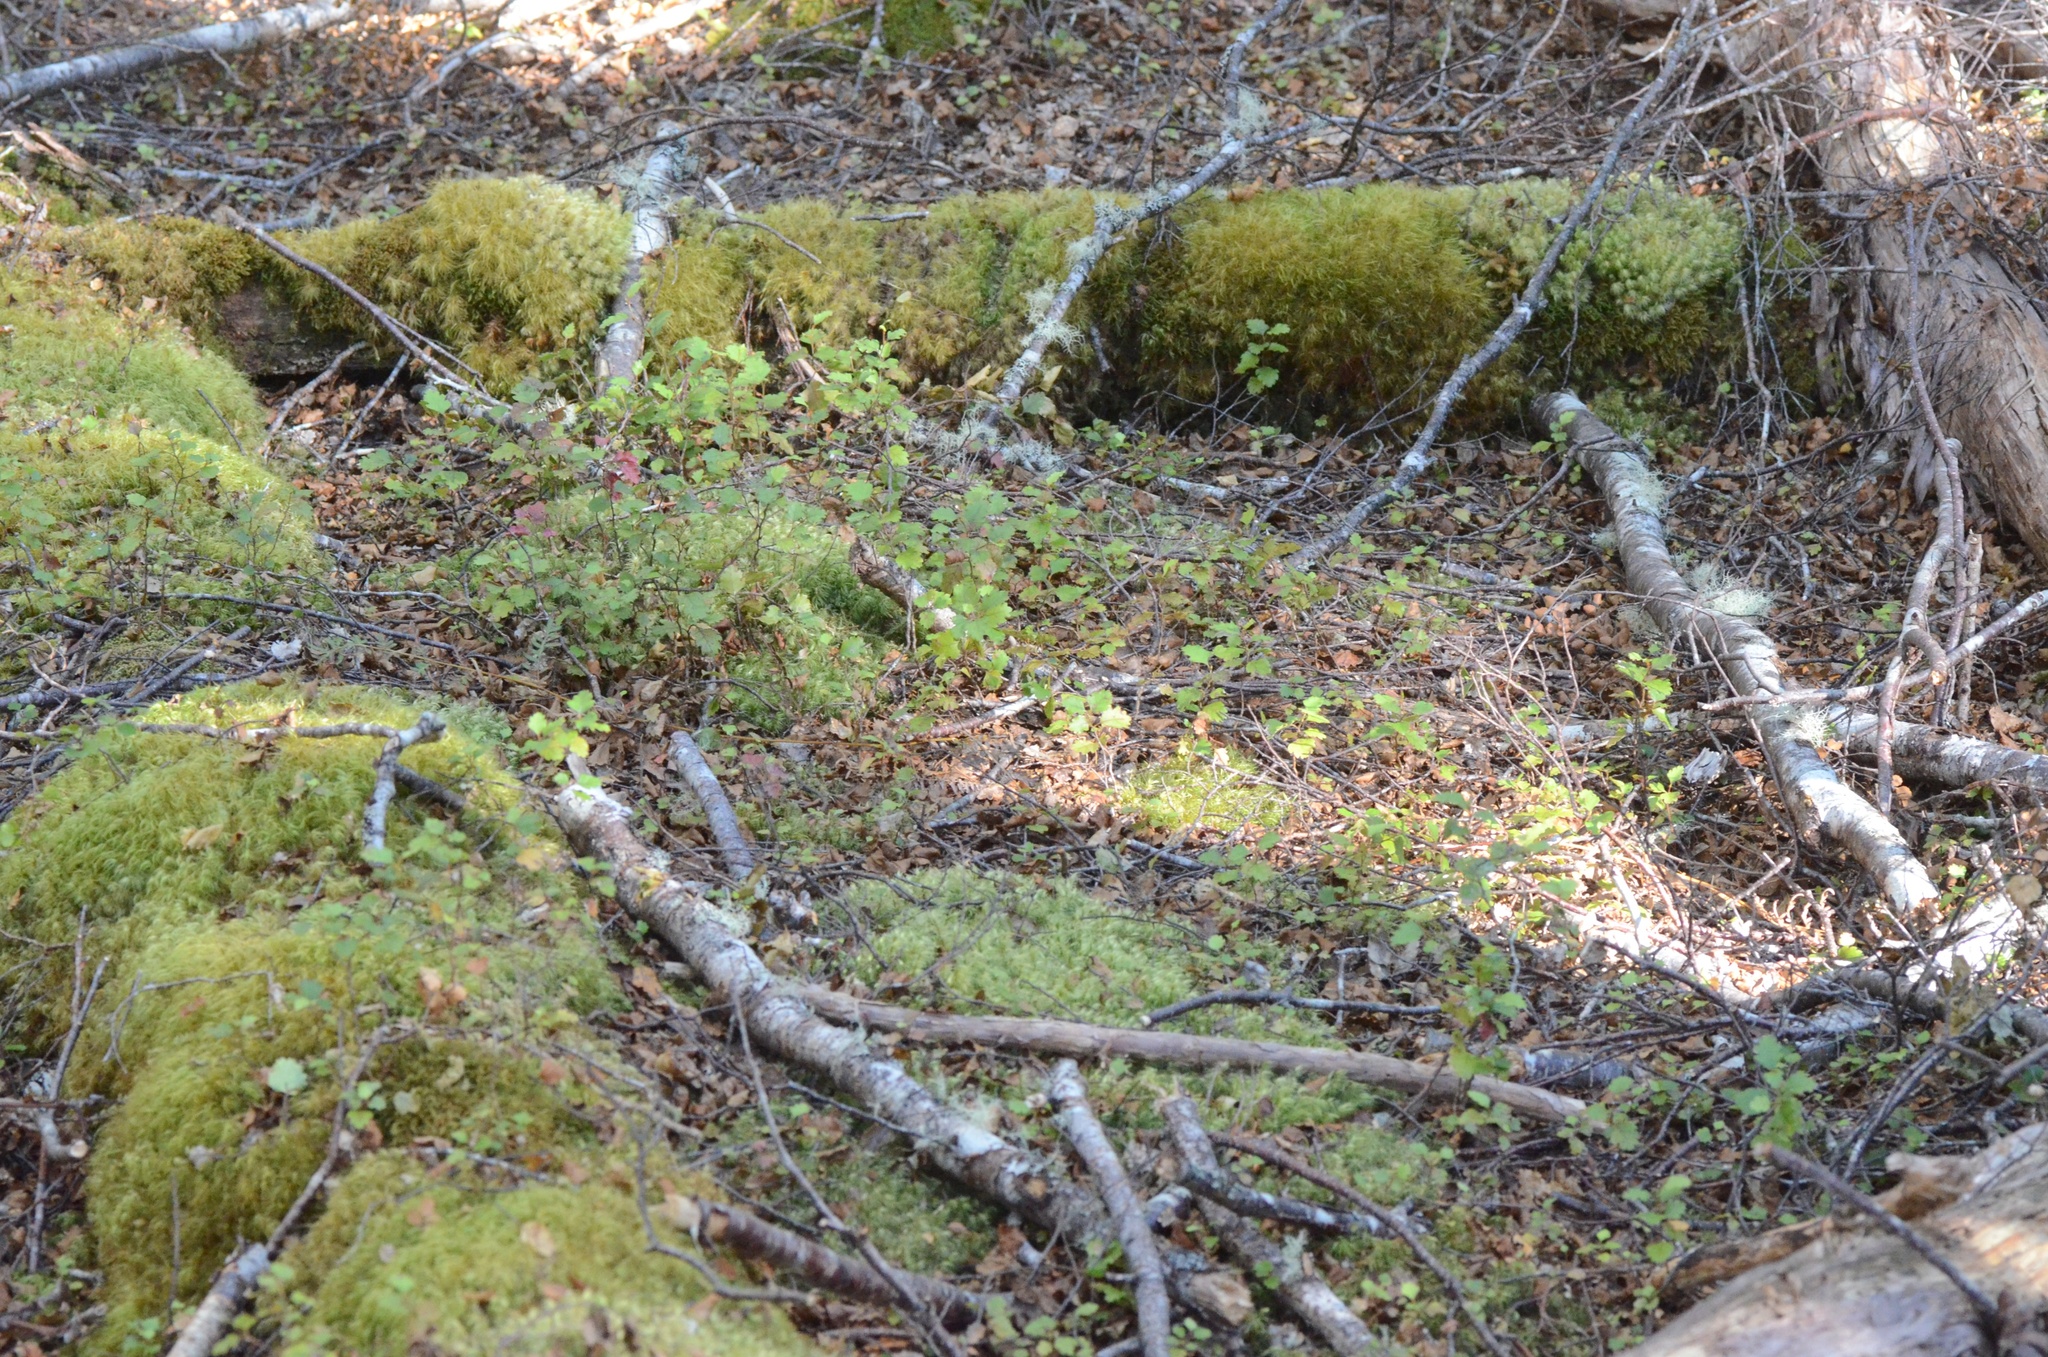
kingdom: Plantae
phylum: Tracheophyta
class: Magnoliopsida
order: Fagales
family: Nothofagaceae
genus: Nothofagus
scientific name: Nothofagus fusca
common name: Red beech
